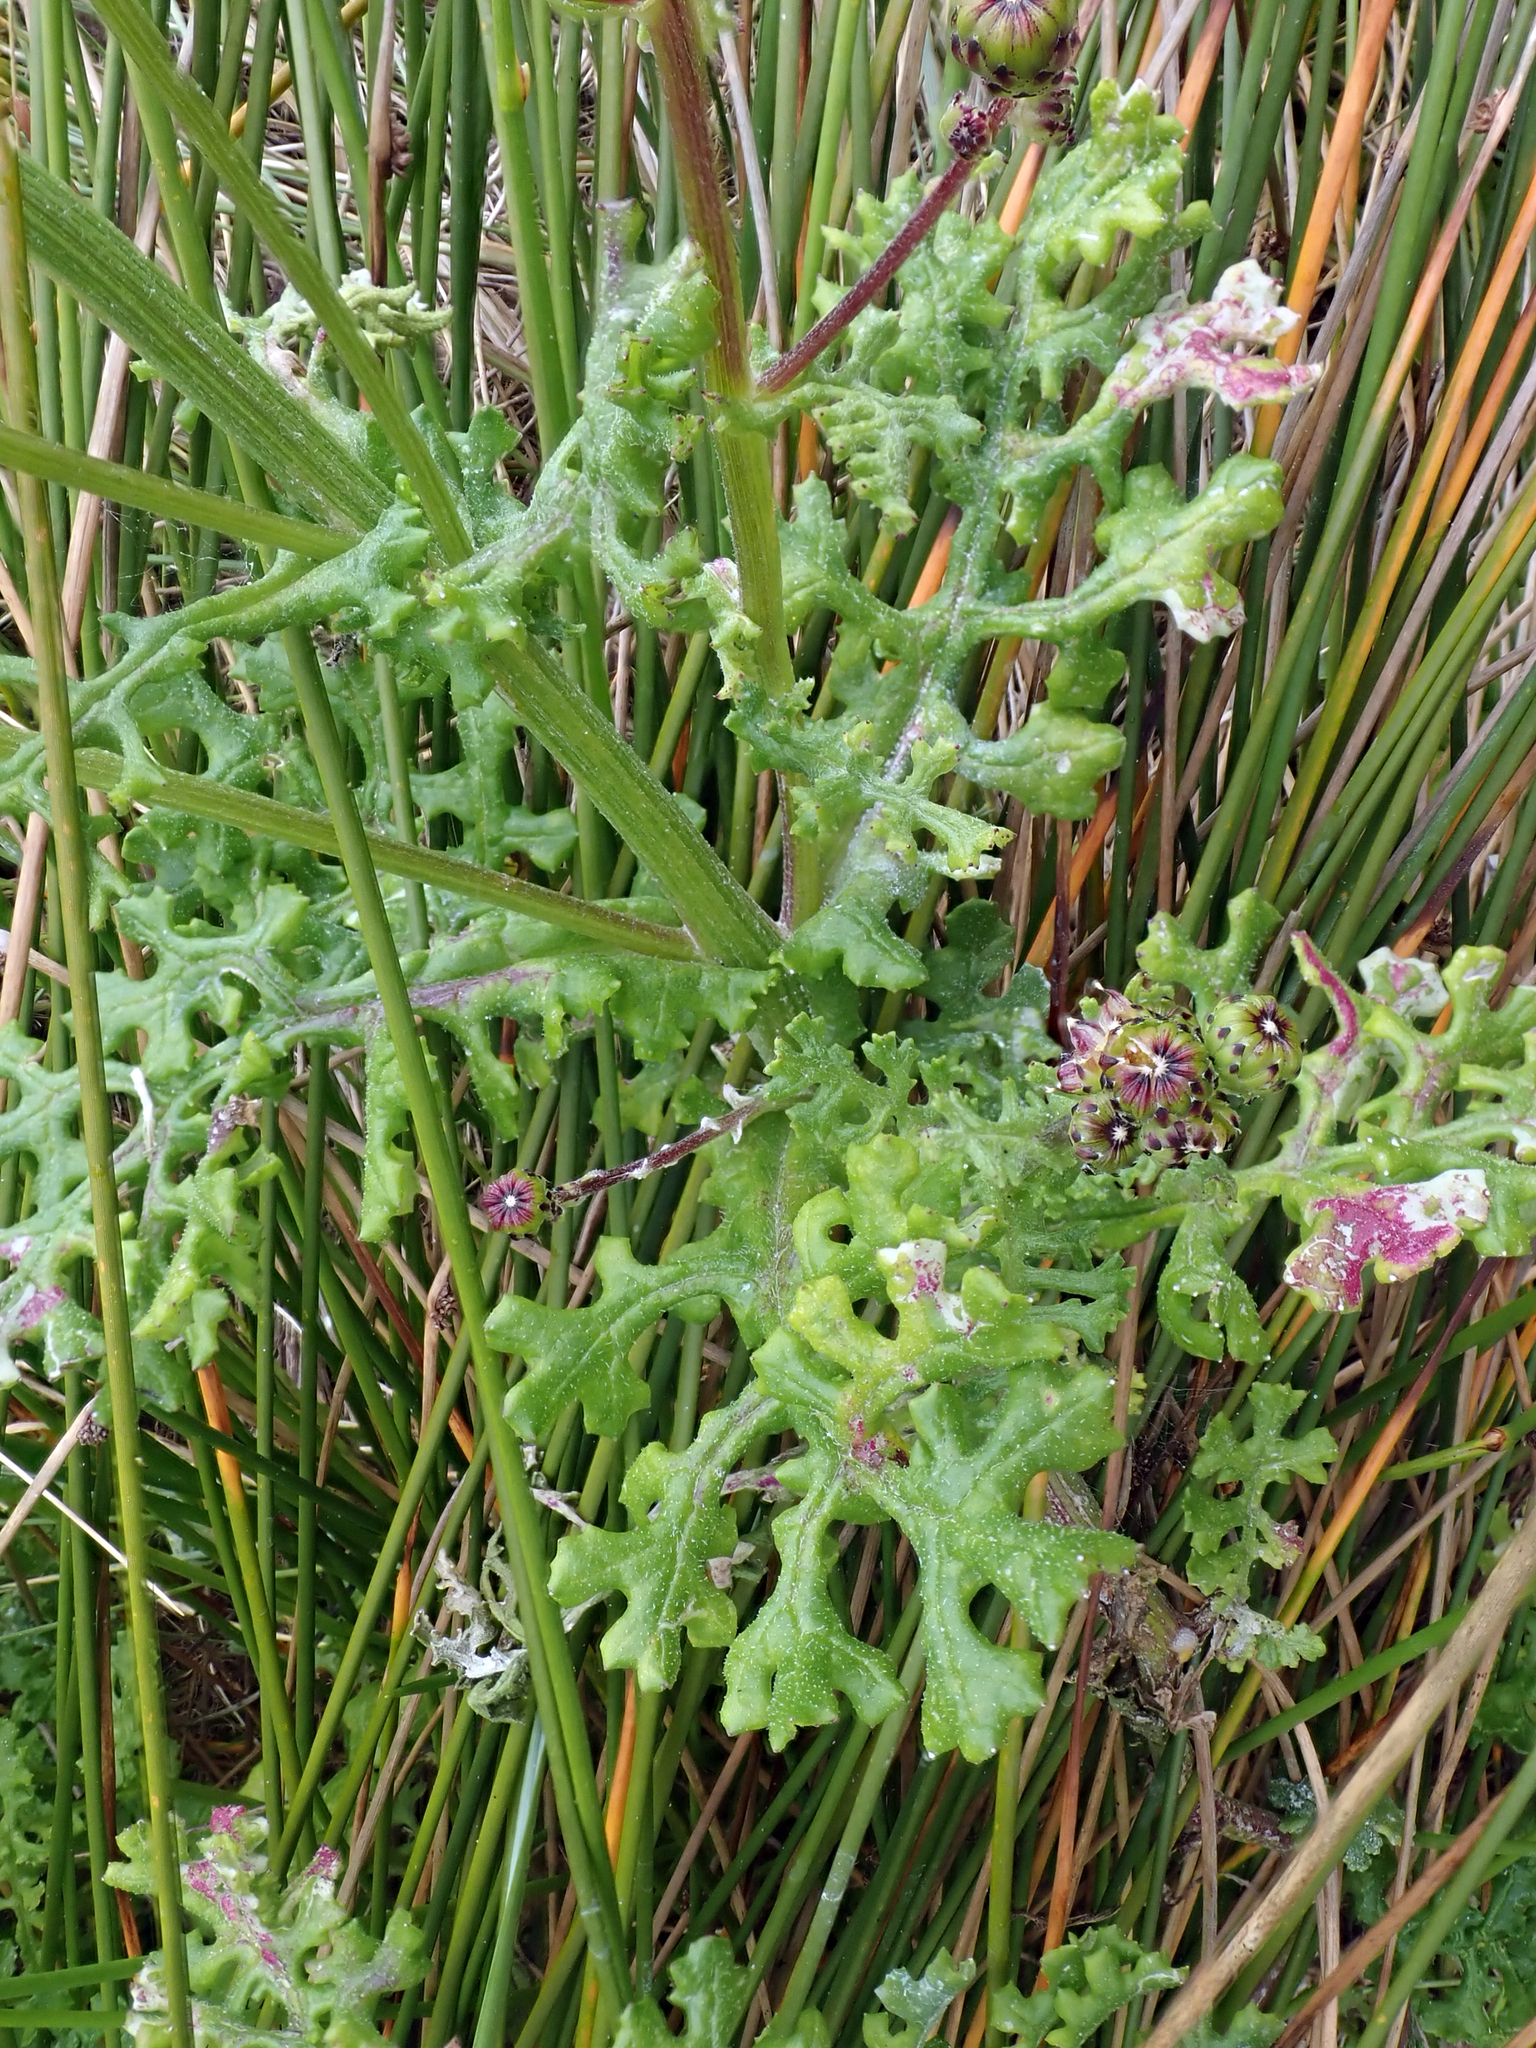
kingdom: Plantae
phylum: Tracheophyta
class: Magnoliopsida
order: Asterales
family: Asteraceae
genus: Senecio
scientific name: Senecio elegans
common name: Purple groundsel
